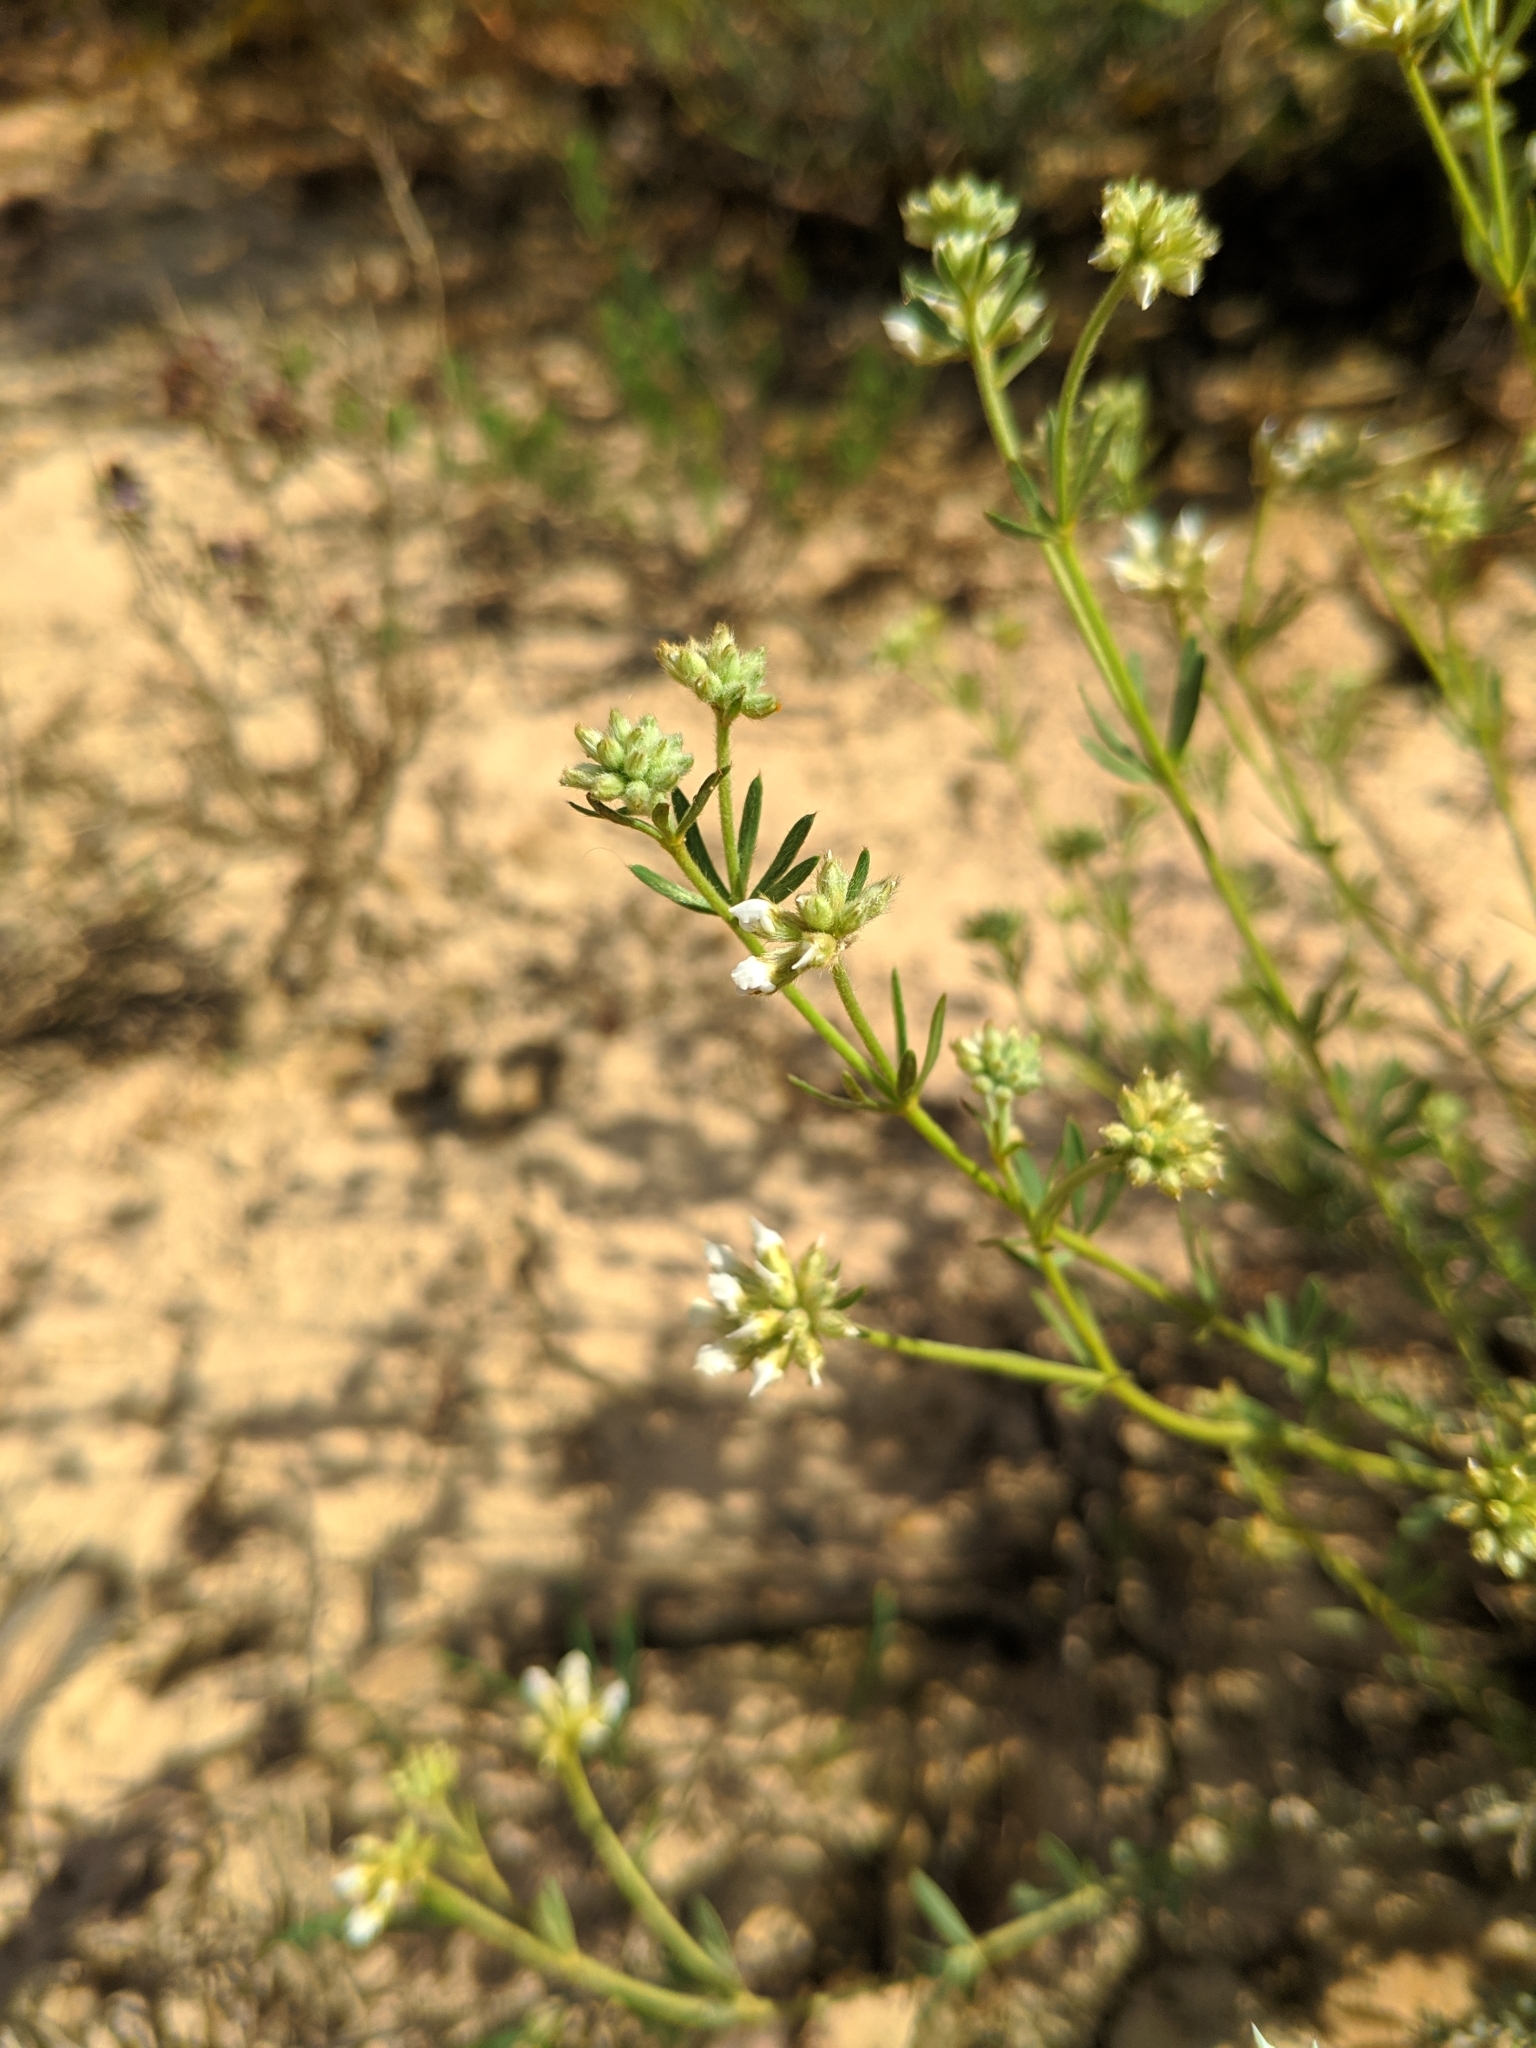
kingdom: Plantae
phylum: Tracheophyta
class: Magnoliopsida
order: Fabales
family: Fabaceae
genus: Lotus
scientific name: Lotus dorycnium
